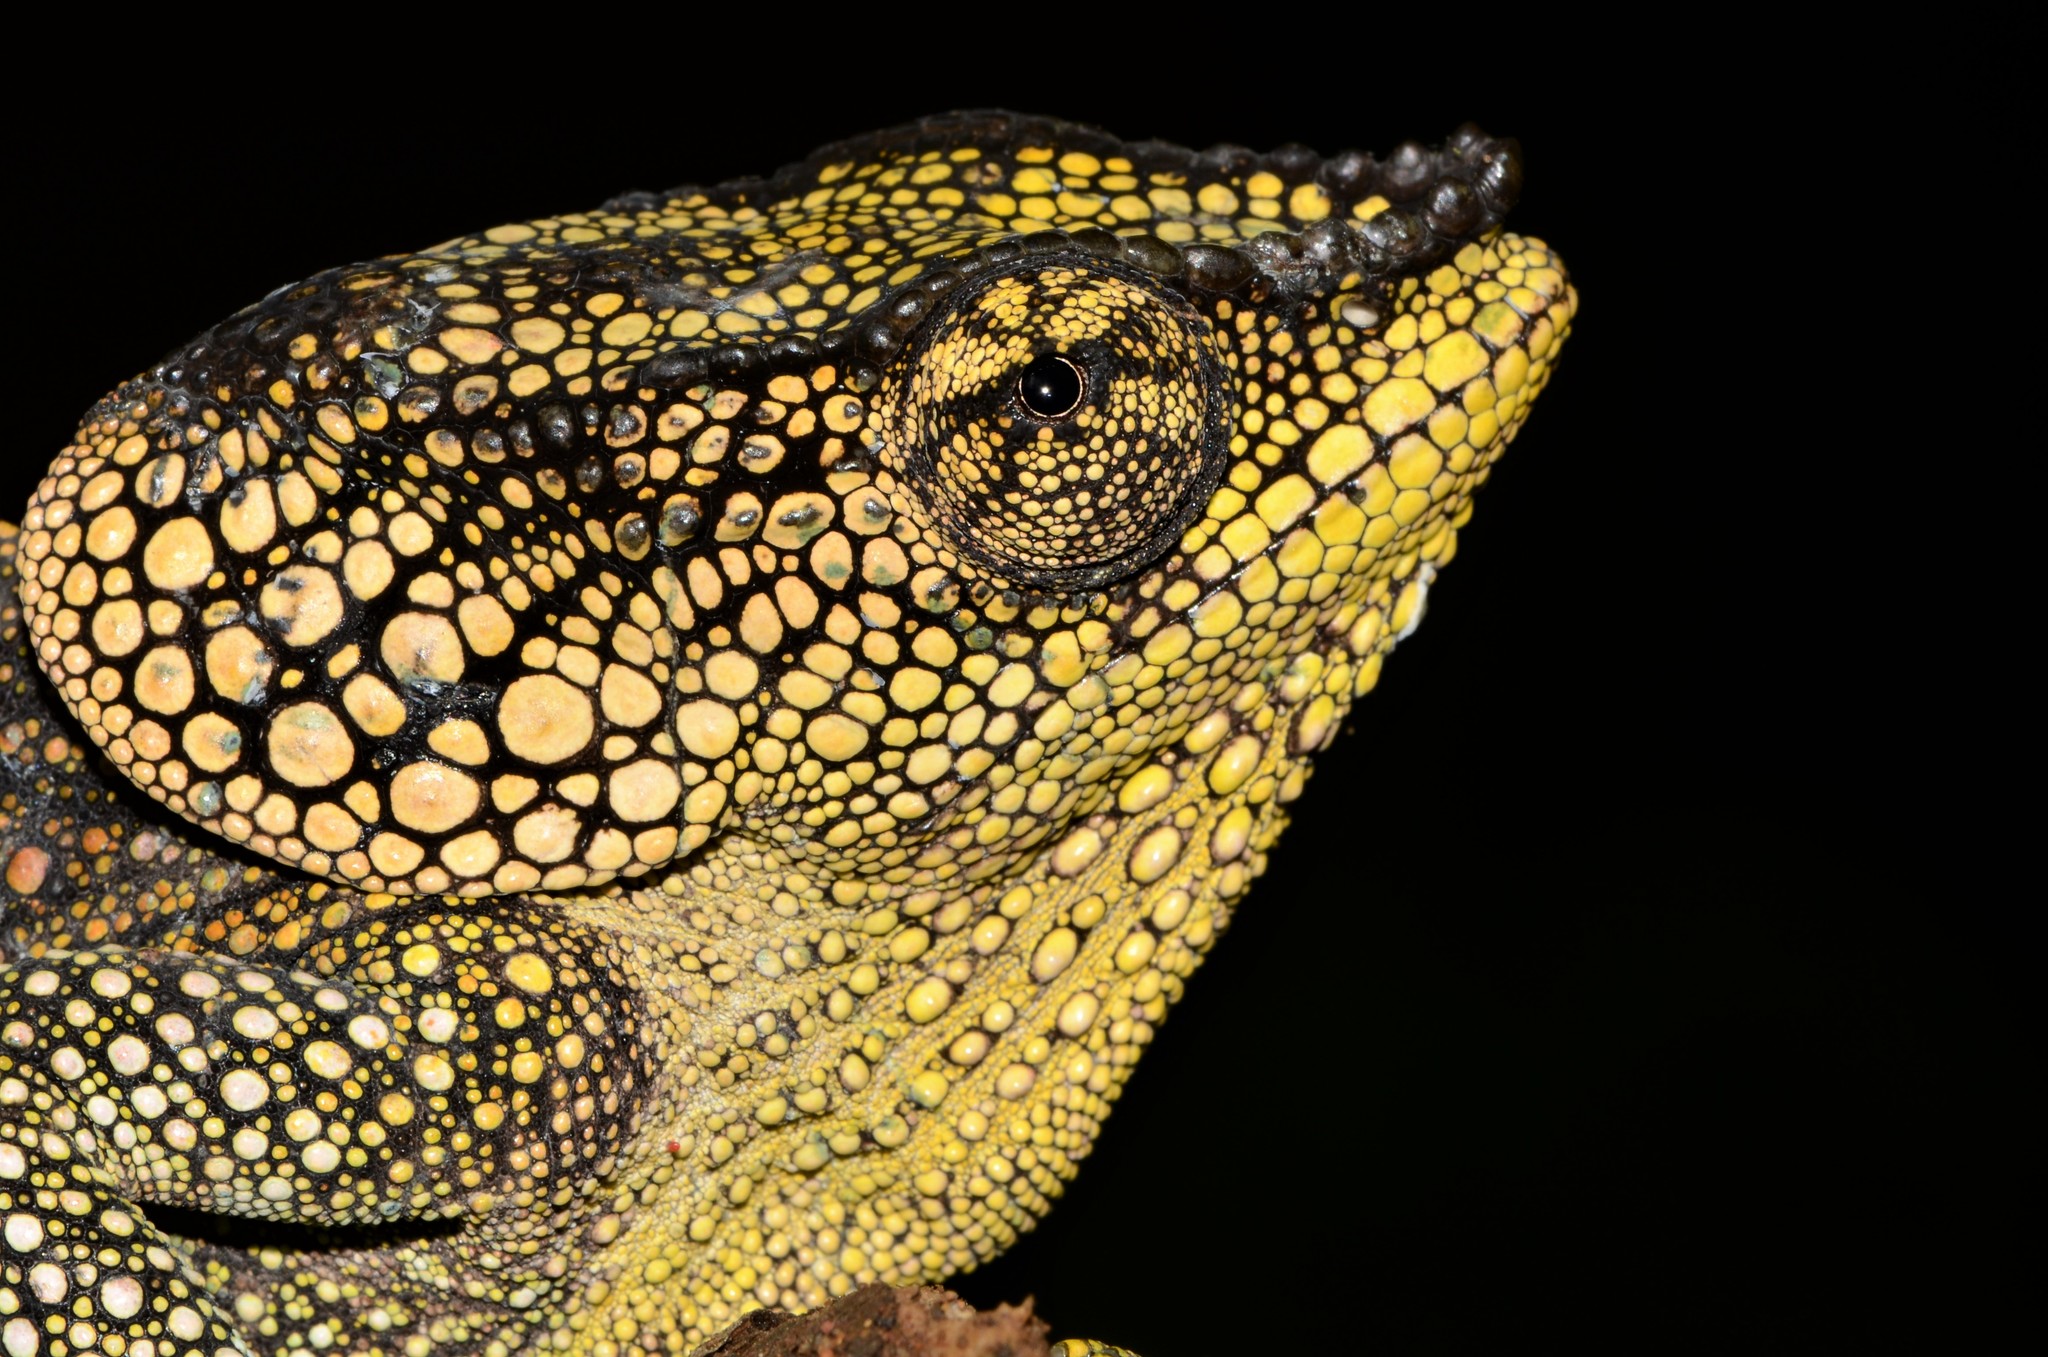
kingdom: Animalia
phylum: Chordata
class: Squamata
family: Chamaeleonidae
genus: Calumma
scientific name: Calumma amber
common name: Amber mountain chameleon
